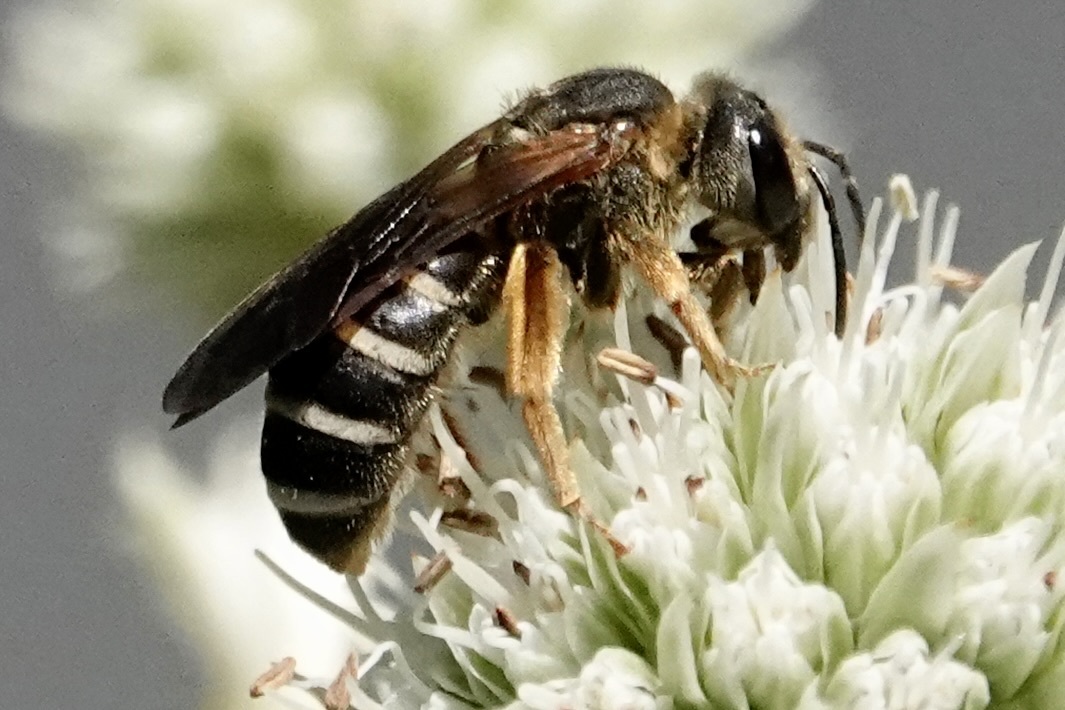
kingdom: Animalia
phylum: Arthropoda
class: Insecta
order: Hymenoptera
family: Halictidae
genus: Halictus
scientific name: Halictus parallelus
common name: Parallel-striped sweat bee
